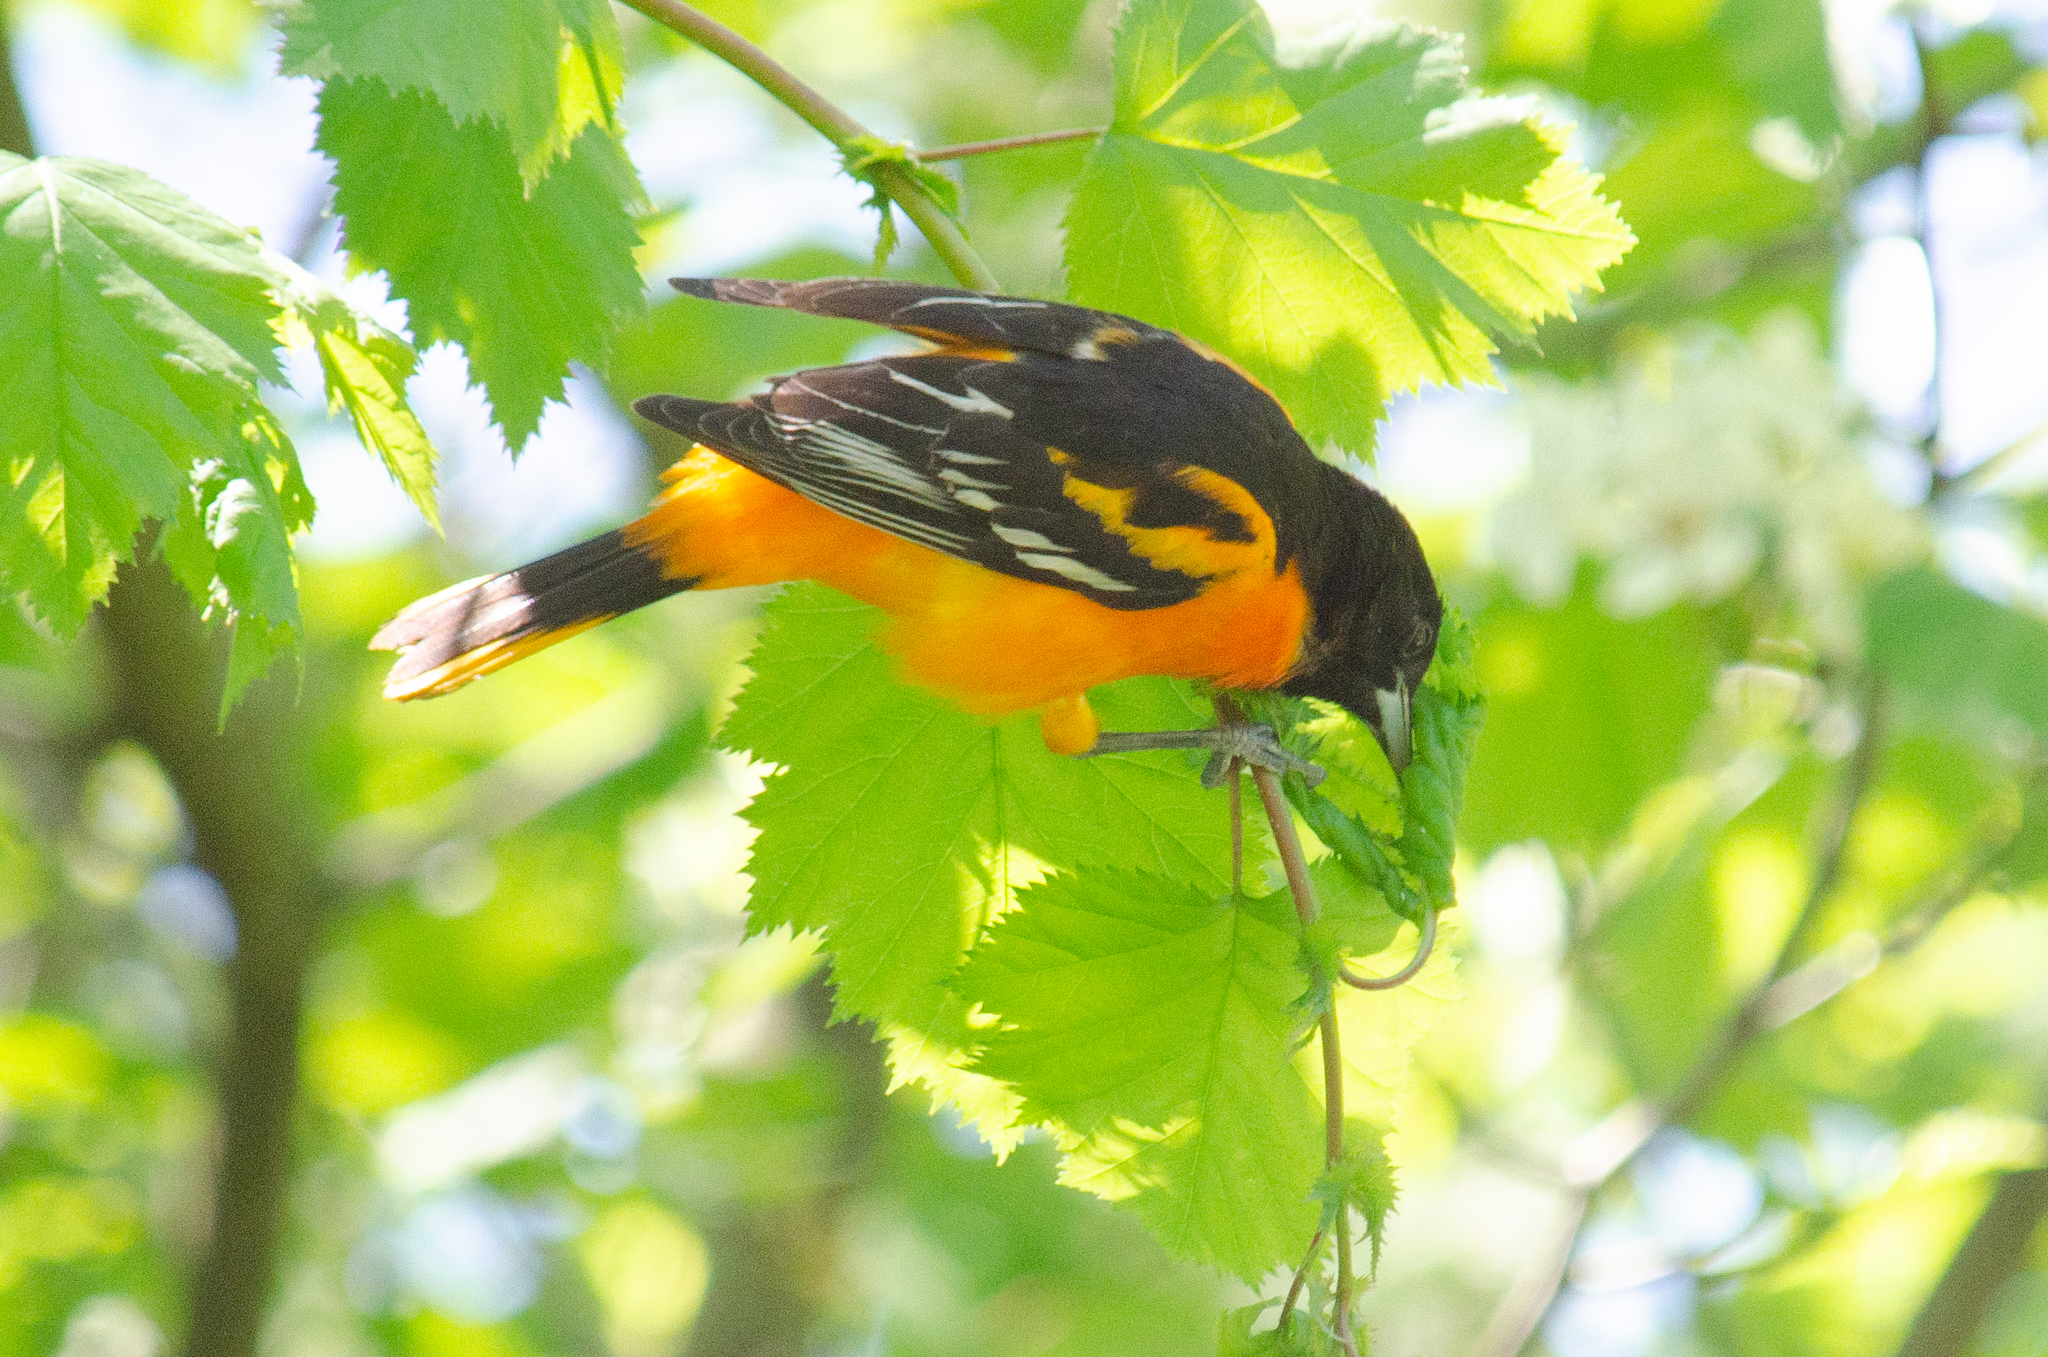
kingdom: Animalia
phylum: Chordata
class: Aves
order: Passeriformes
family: Icteridae
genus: Icterus
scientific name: Icterus galbula
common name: Baltimore oriole
